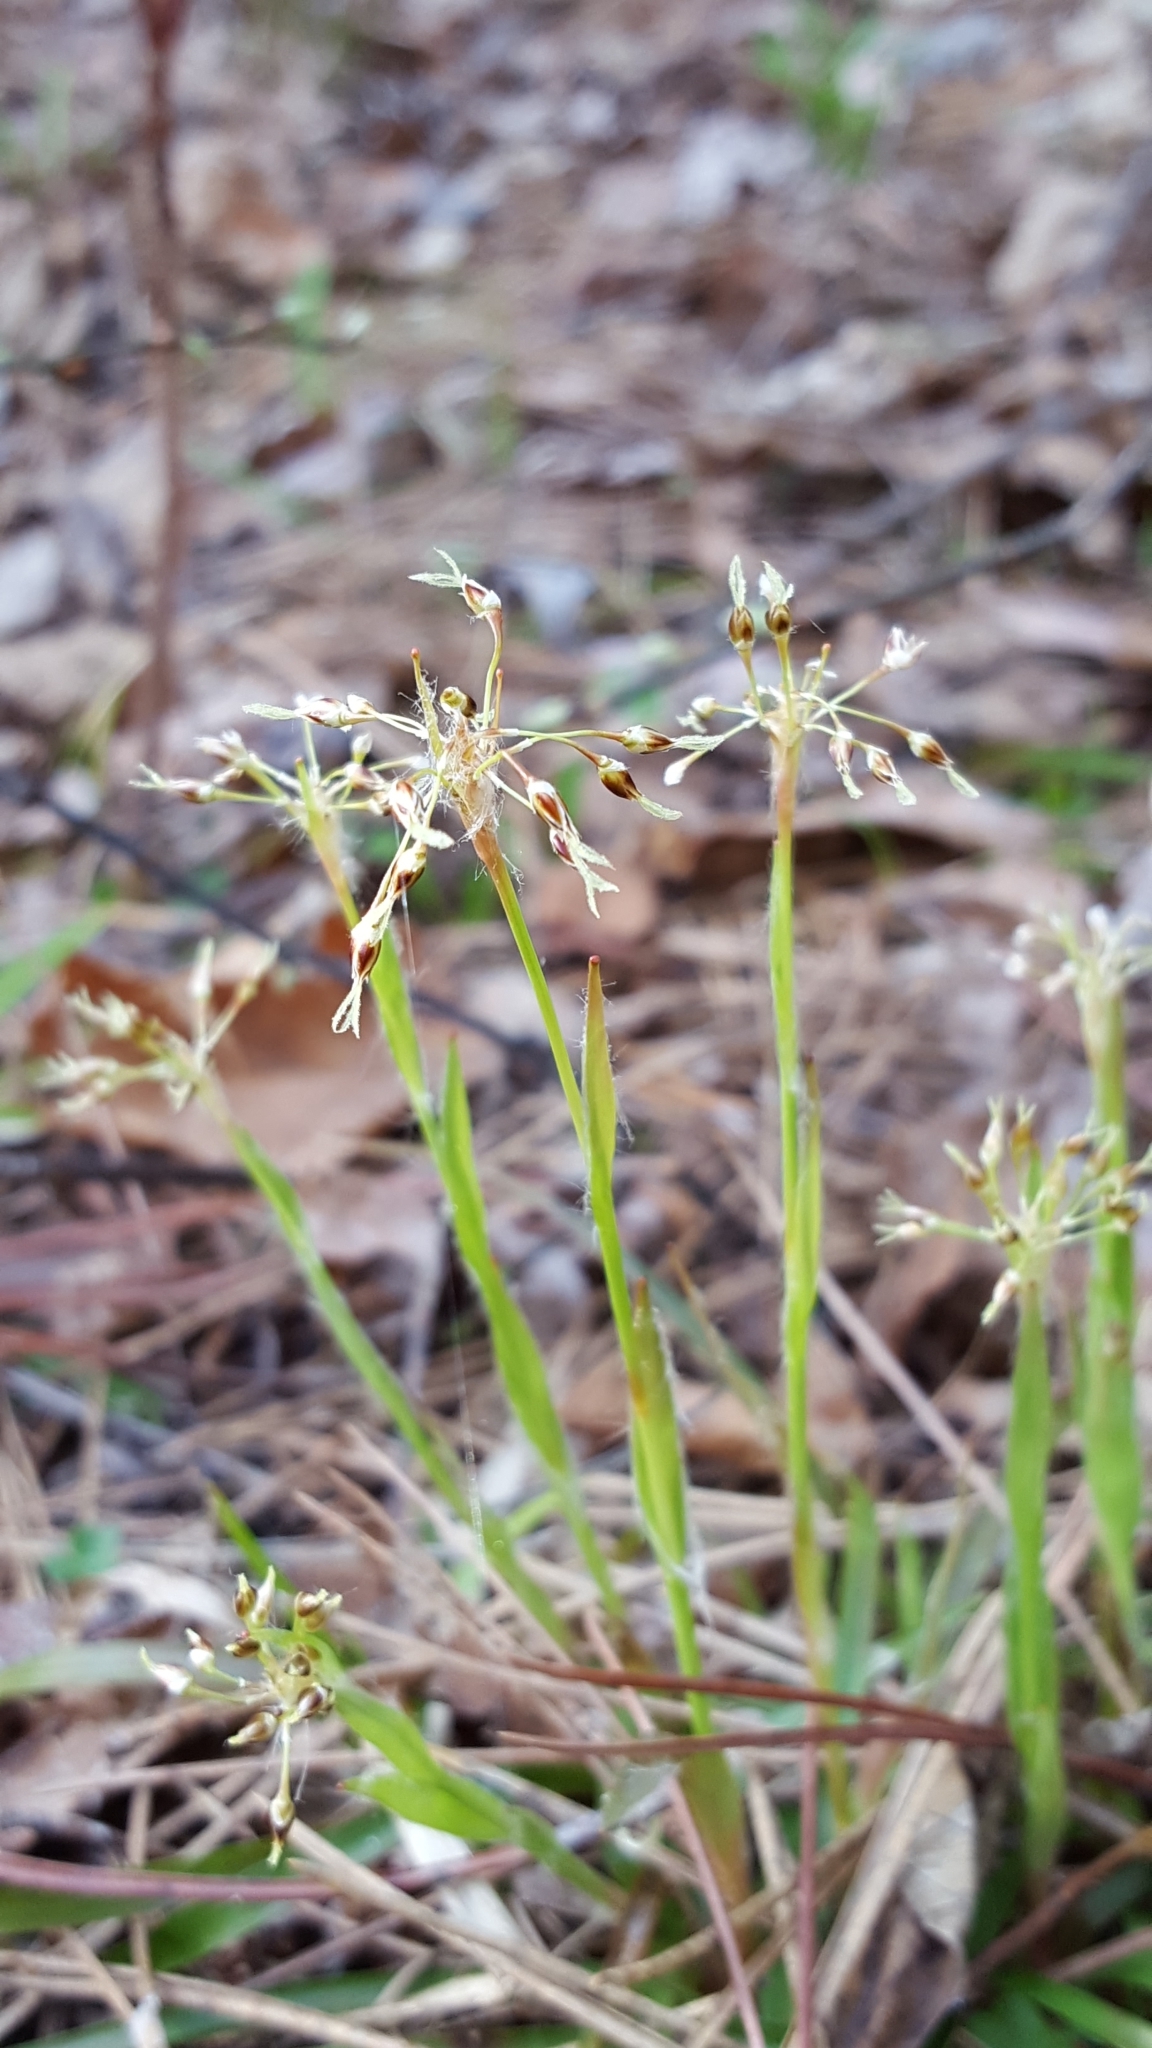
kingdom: Plantae
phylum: Tracheophyta
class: Liliopsida
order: Poales
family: Juncaceae
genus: Luzula
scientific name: Luzula acuminata
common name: Hairy woodrush
